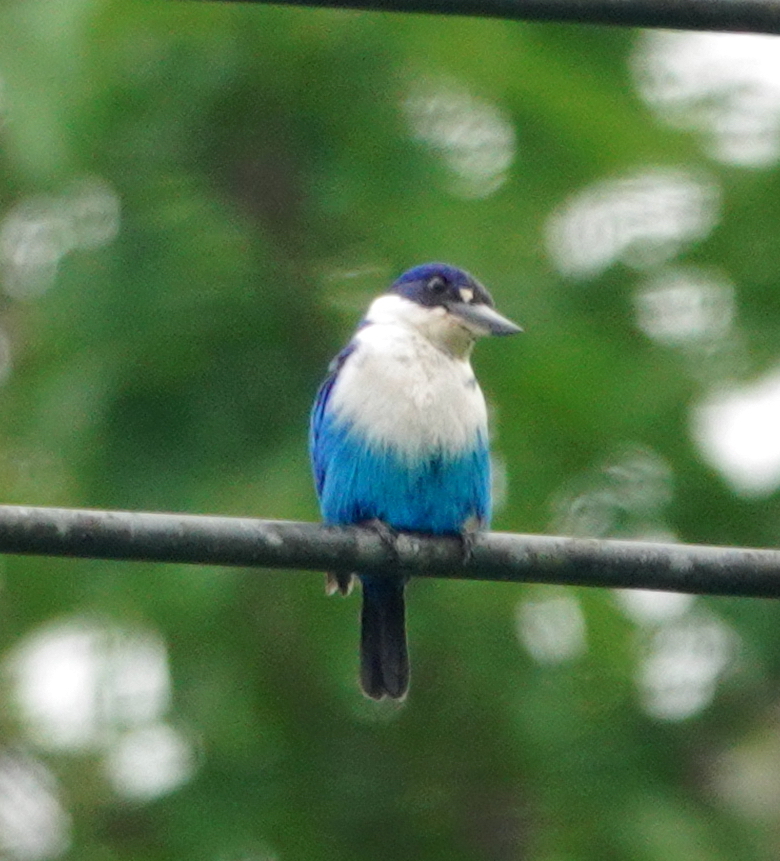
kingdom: Animalia
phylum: Chordata
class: Aves
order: Coraciiformes
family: Alcedinidae
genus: Todiramphus
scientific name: Todiramphus lazuli
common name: Lazuli kingfisher
